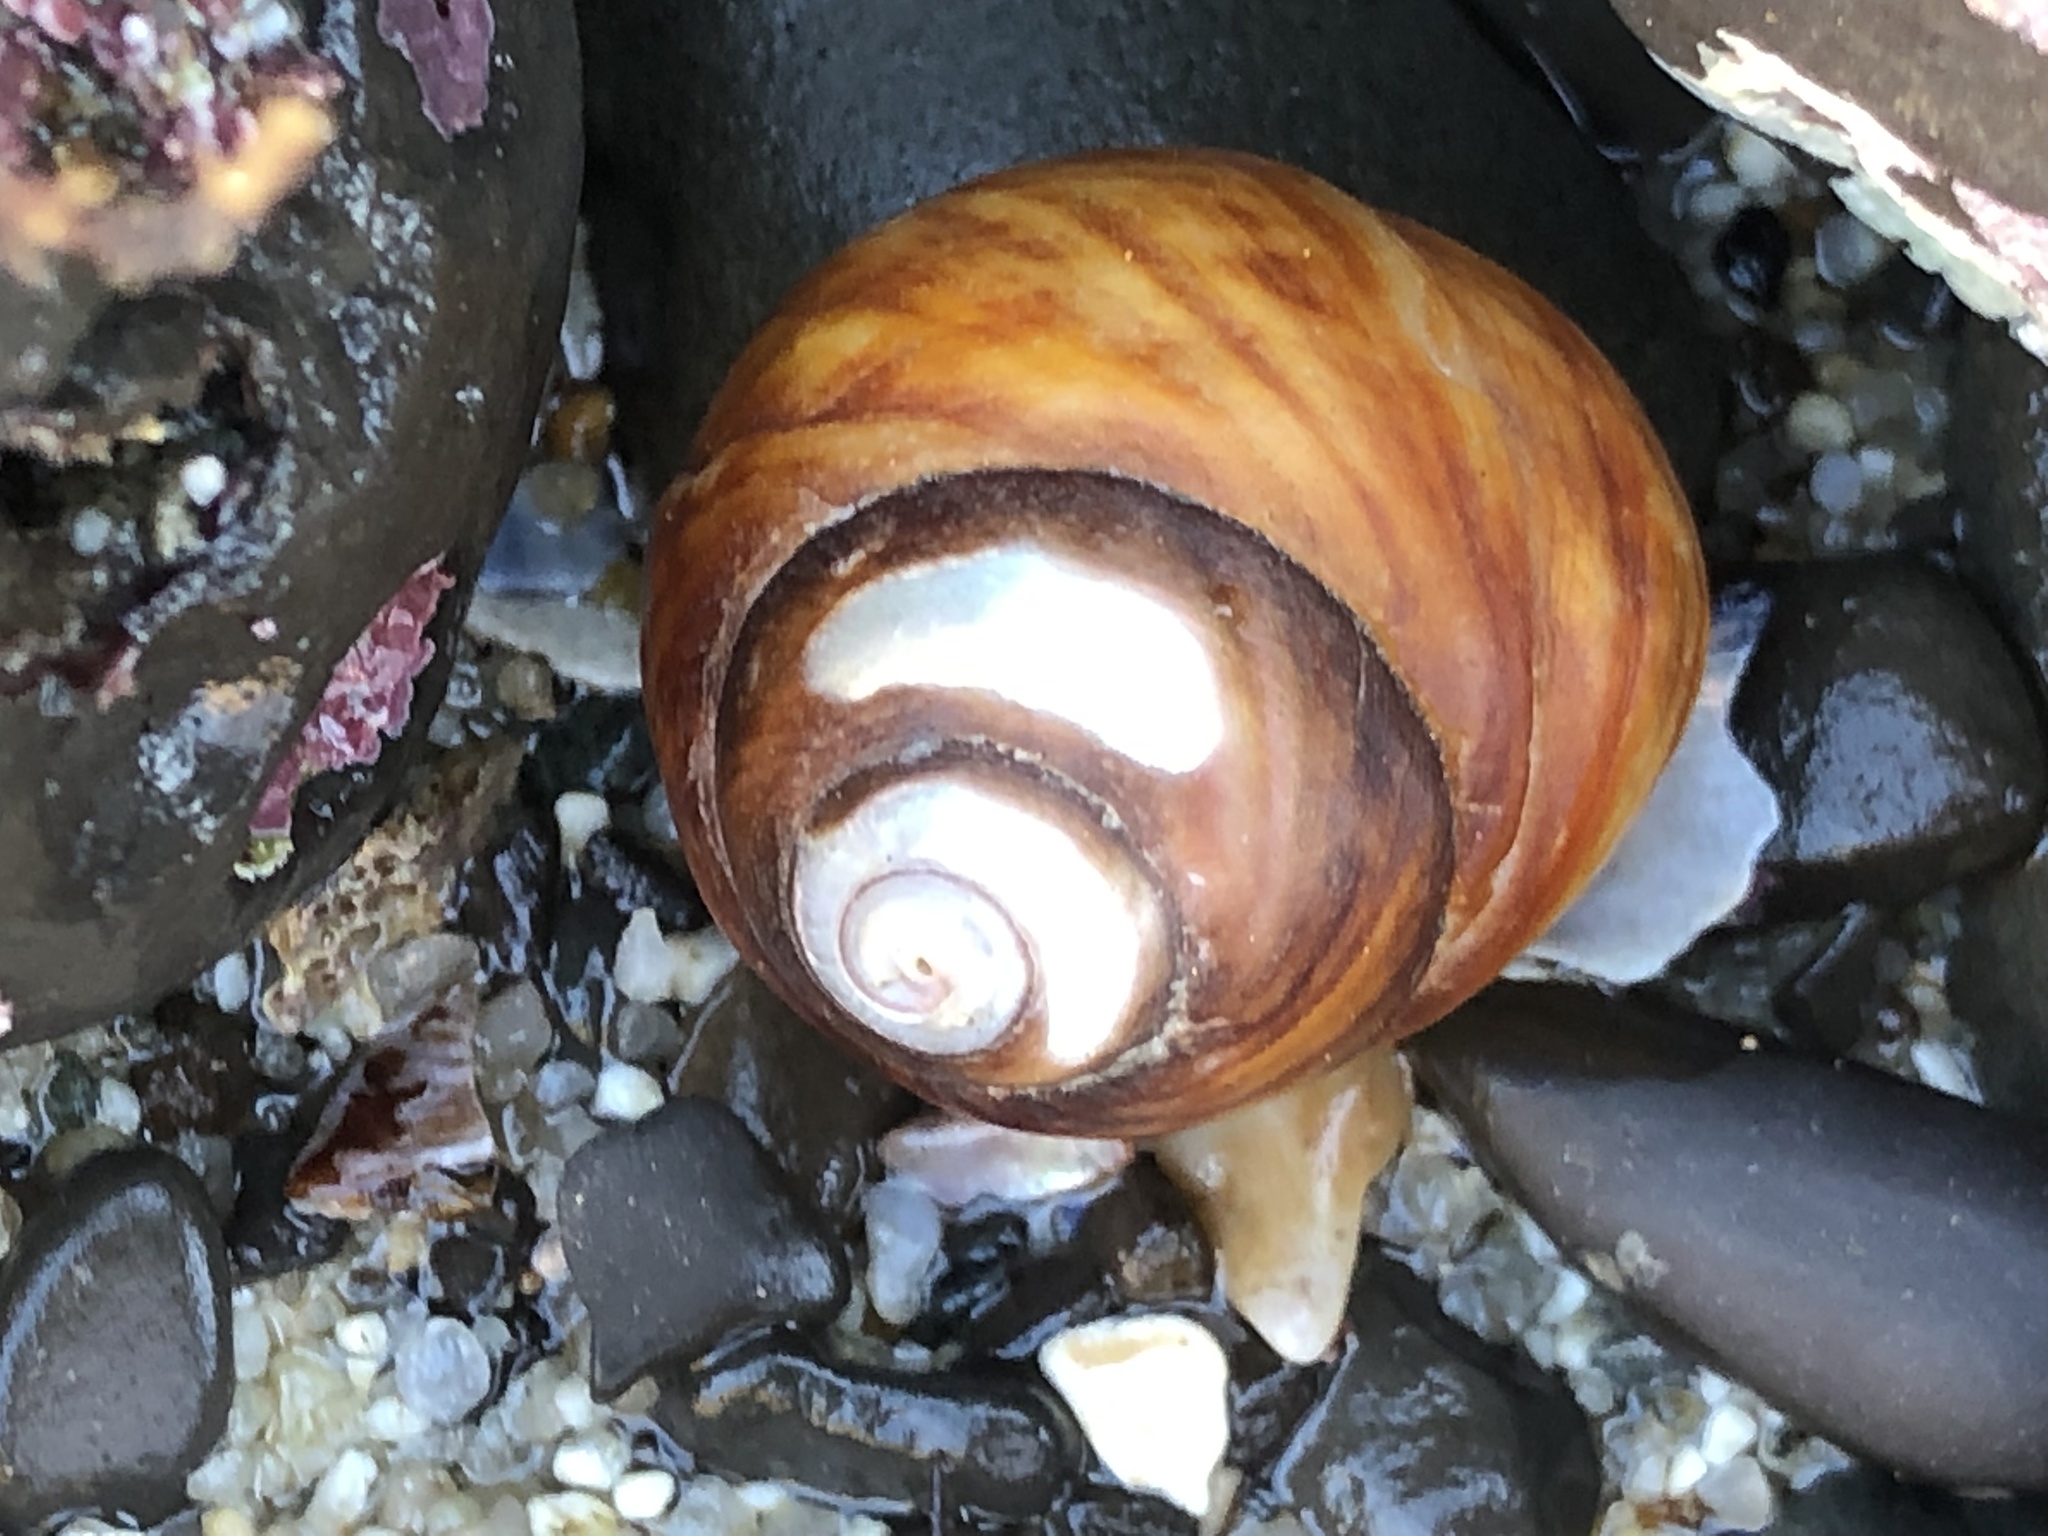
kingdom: Animalia
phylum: Mollusca
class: Gastropoda
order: Trochida
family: Tegulidae
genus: Tegula
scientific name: Tegula brunnea
